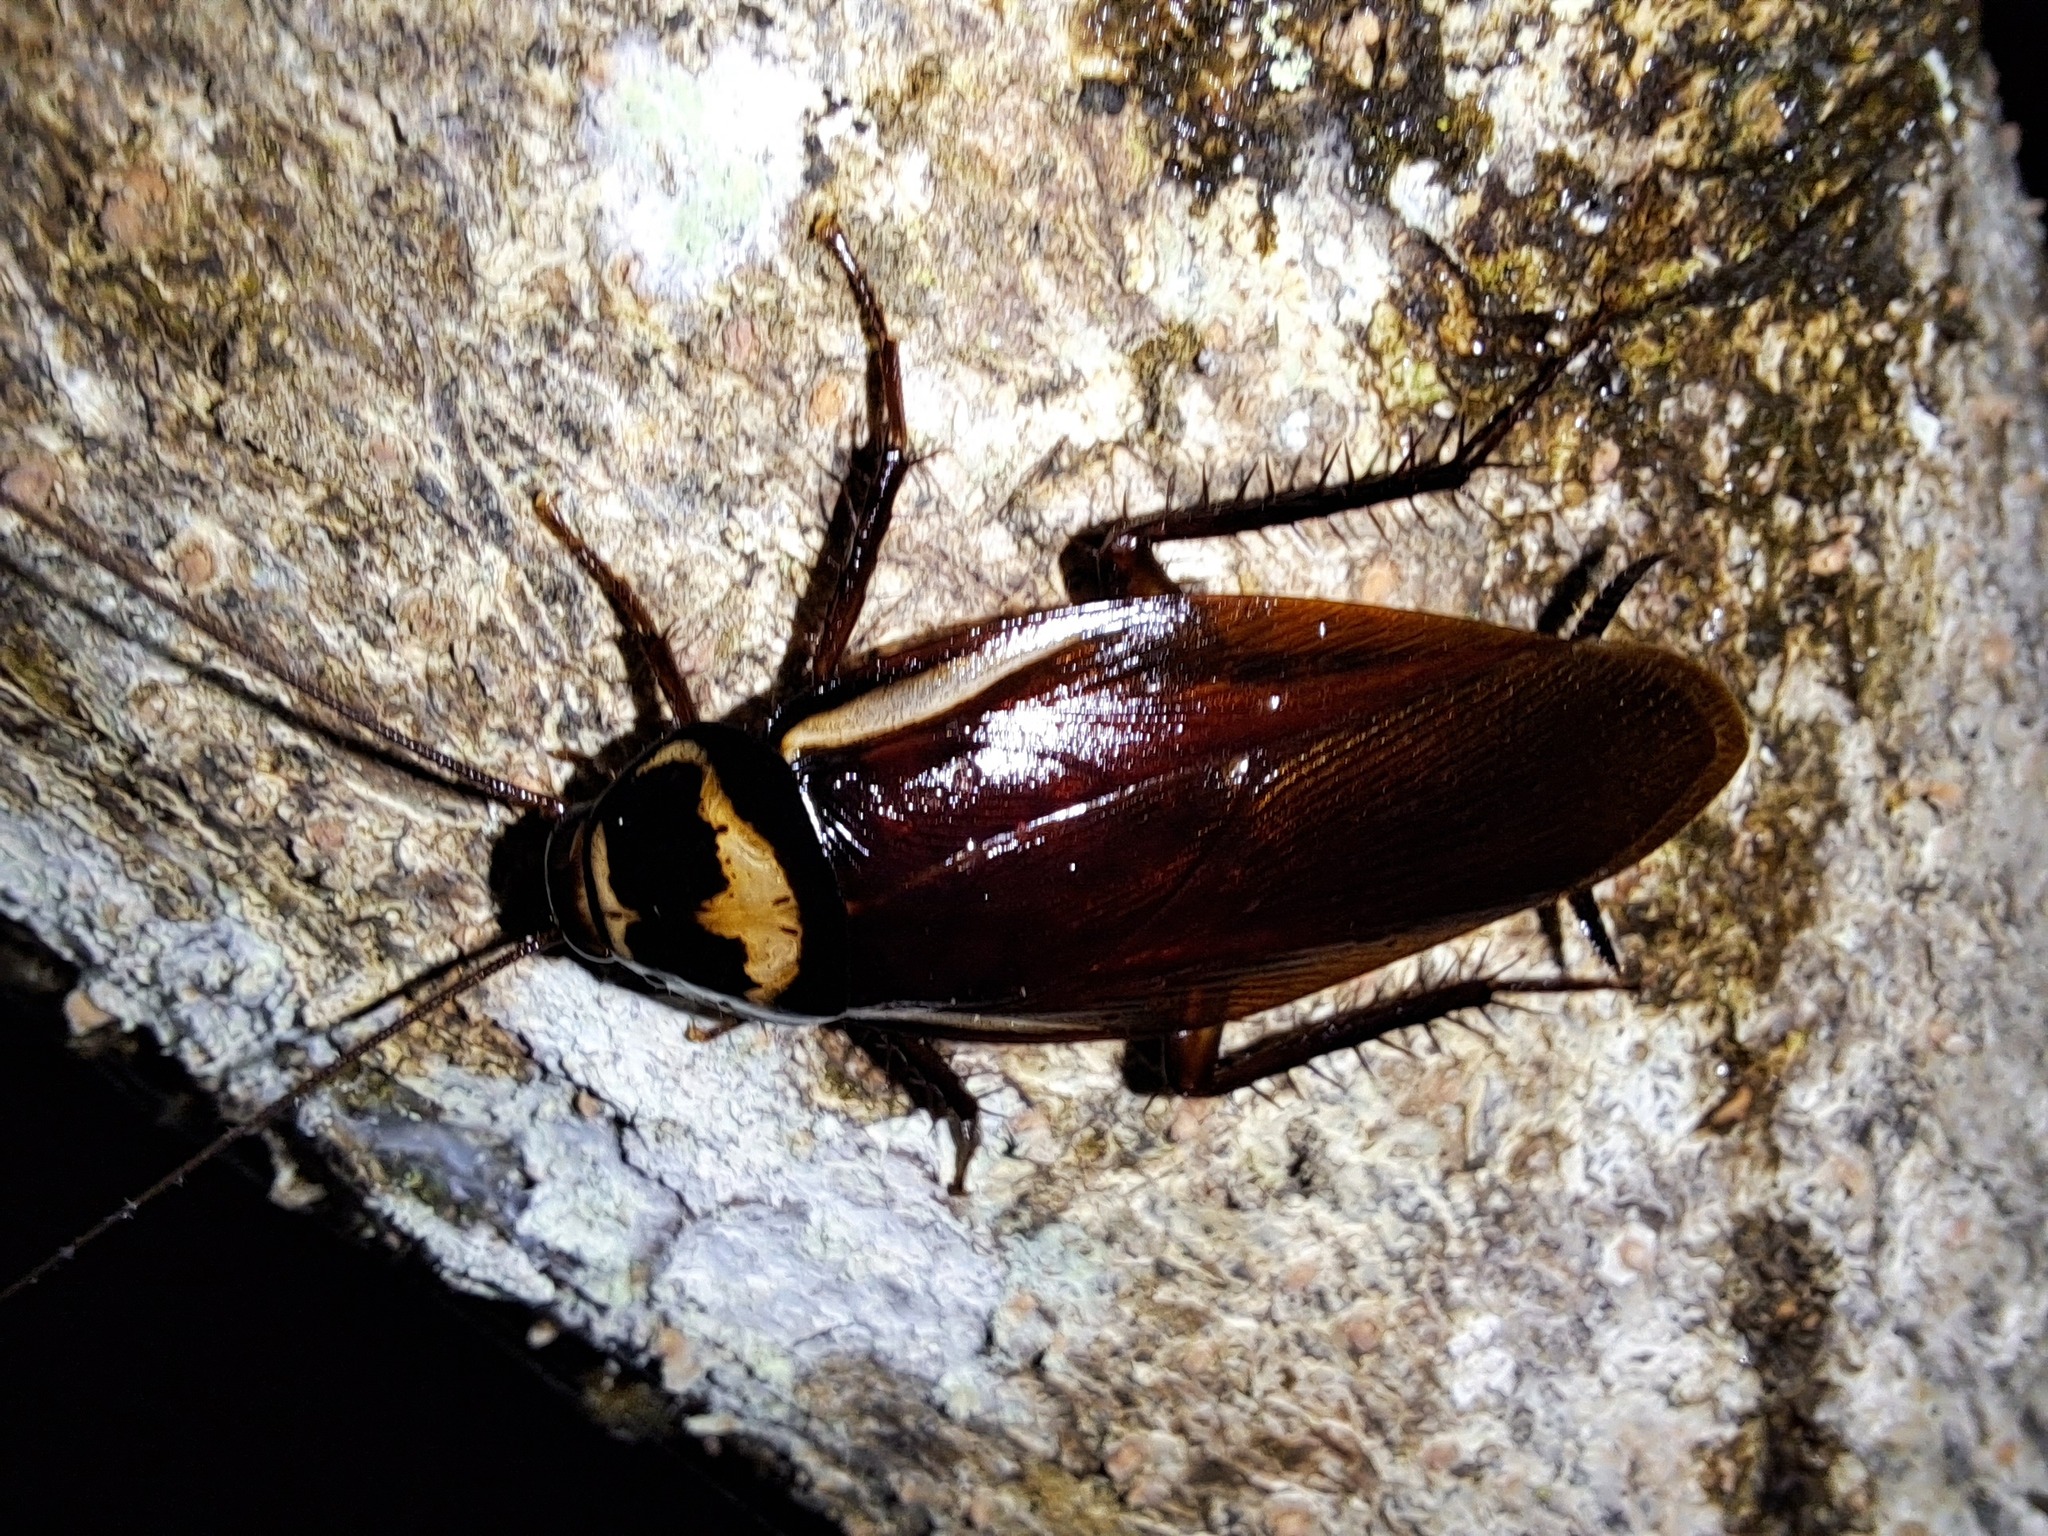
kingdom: Animalia
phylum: Arthropoda
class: Insecta
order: Blattodea
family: Blattidae
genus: Periplaneta
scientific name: Periplaneta australasiae
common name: Australian cockroach
